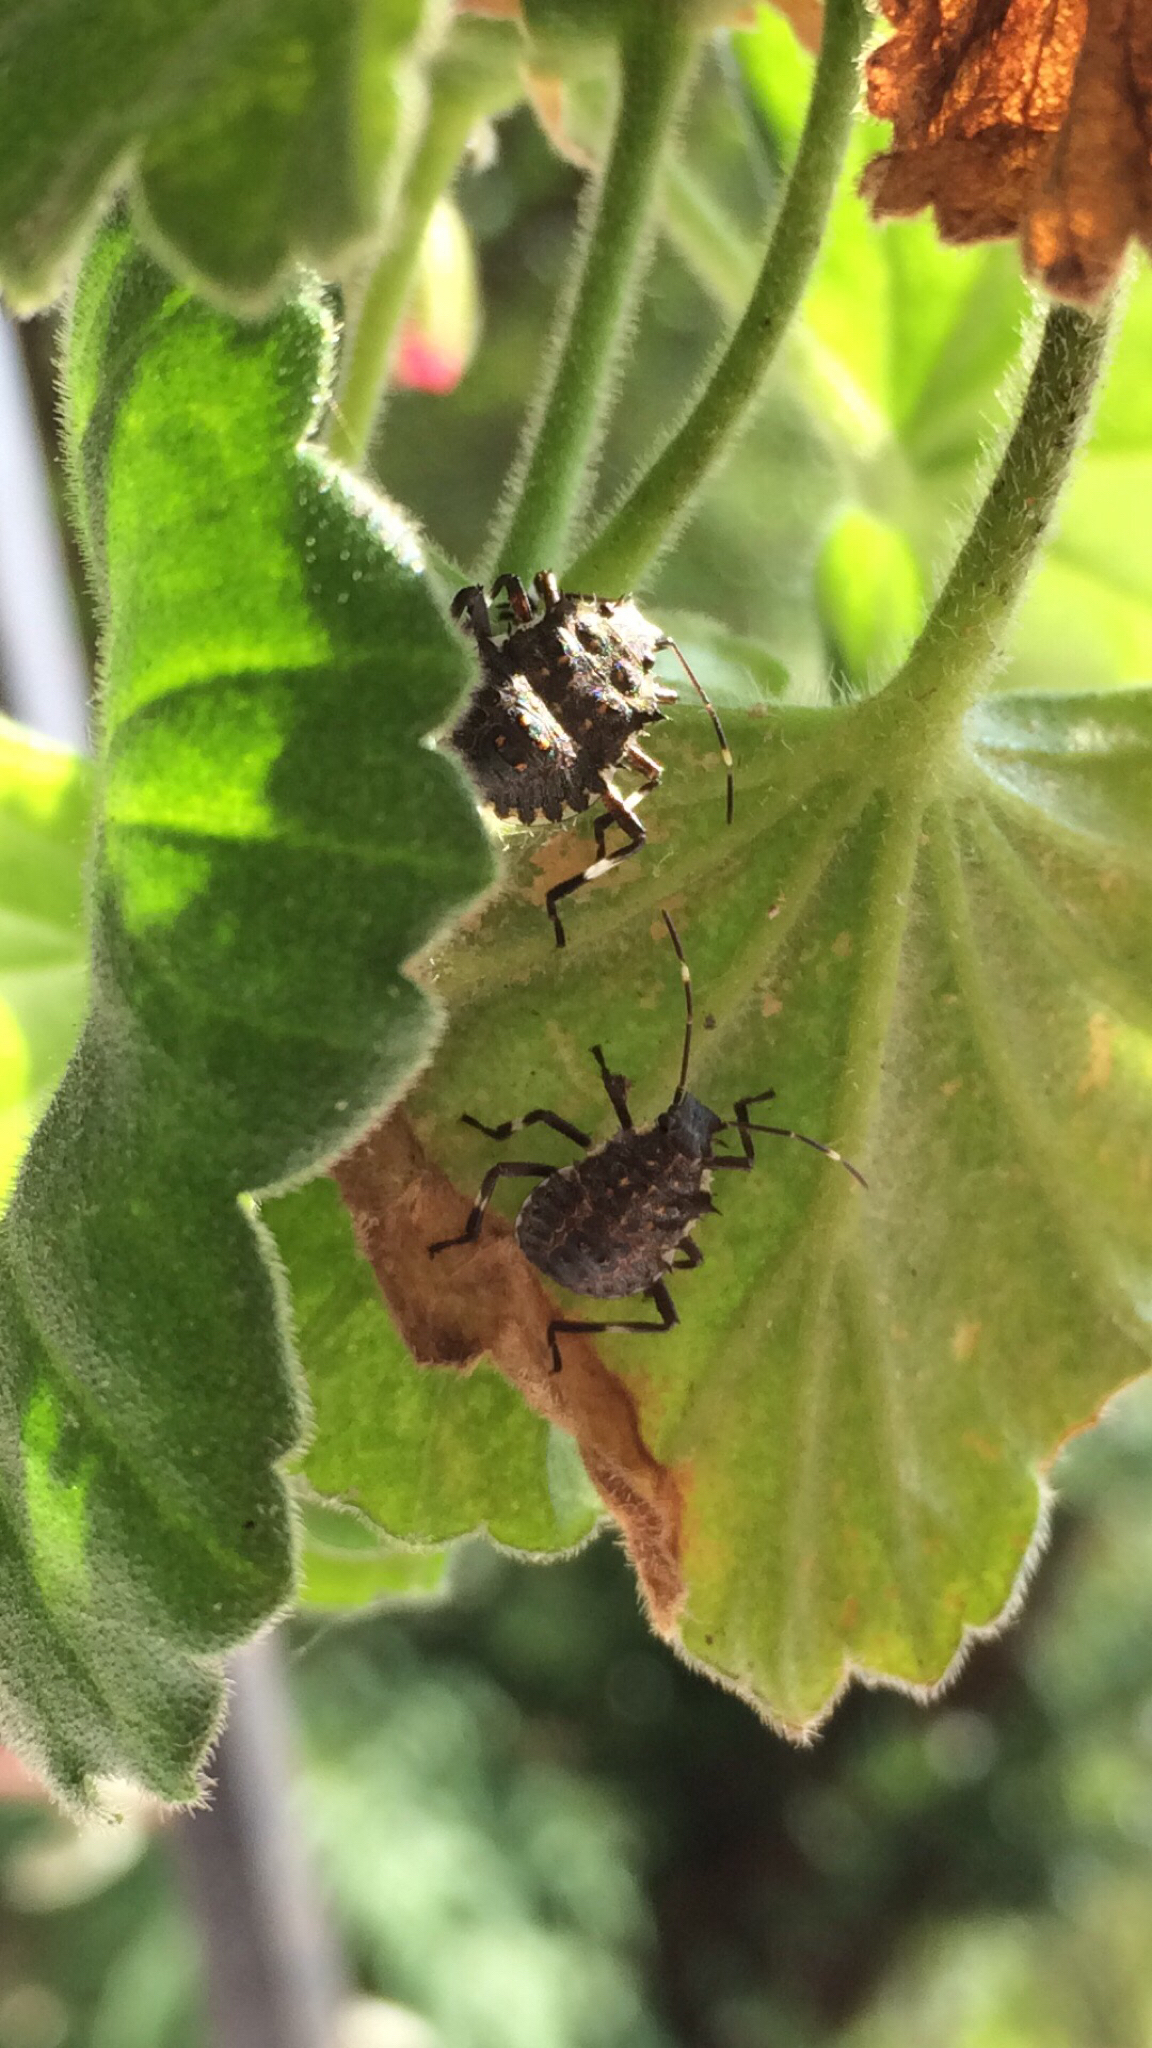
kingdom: Animalia
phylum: Arthropoda
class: Insecta
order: Hemiptera
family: Pentatomidae
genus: Halyomorpha
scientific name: Halyomorpha halys
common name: Brown marmorated stink bug
